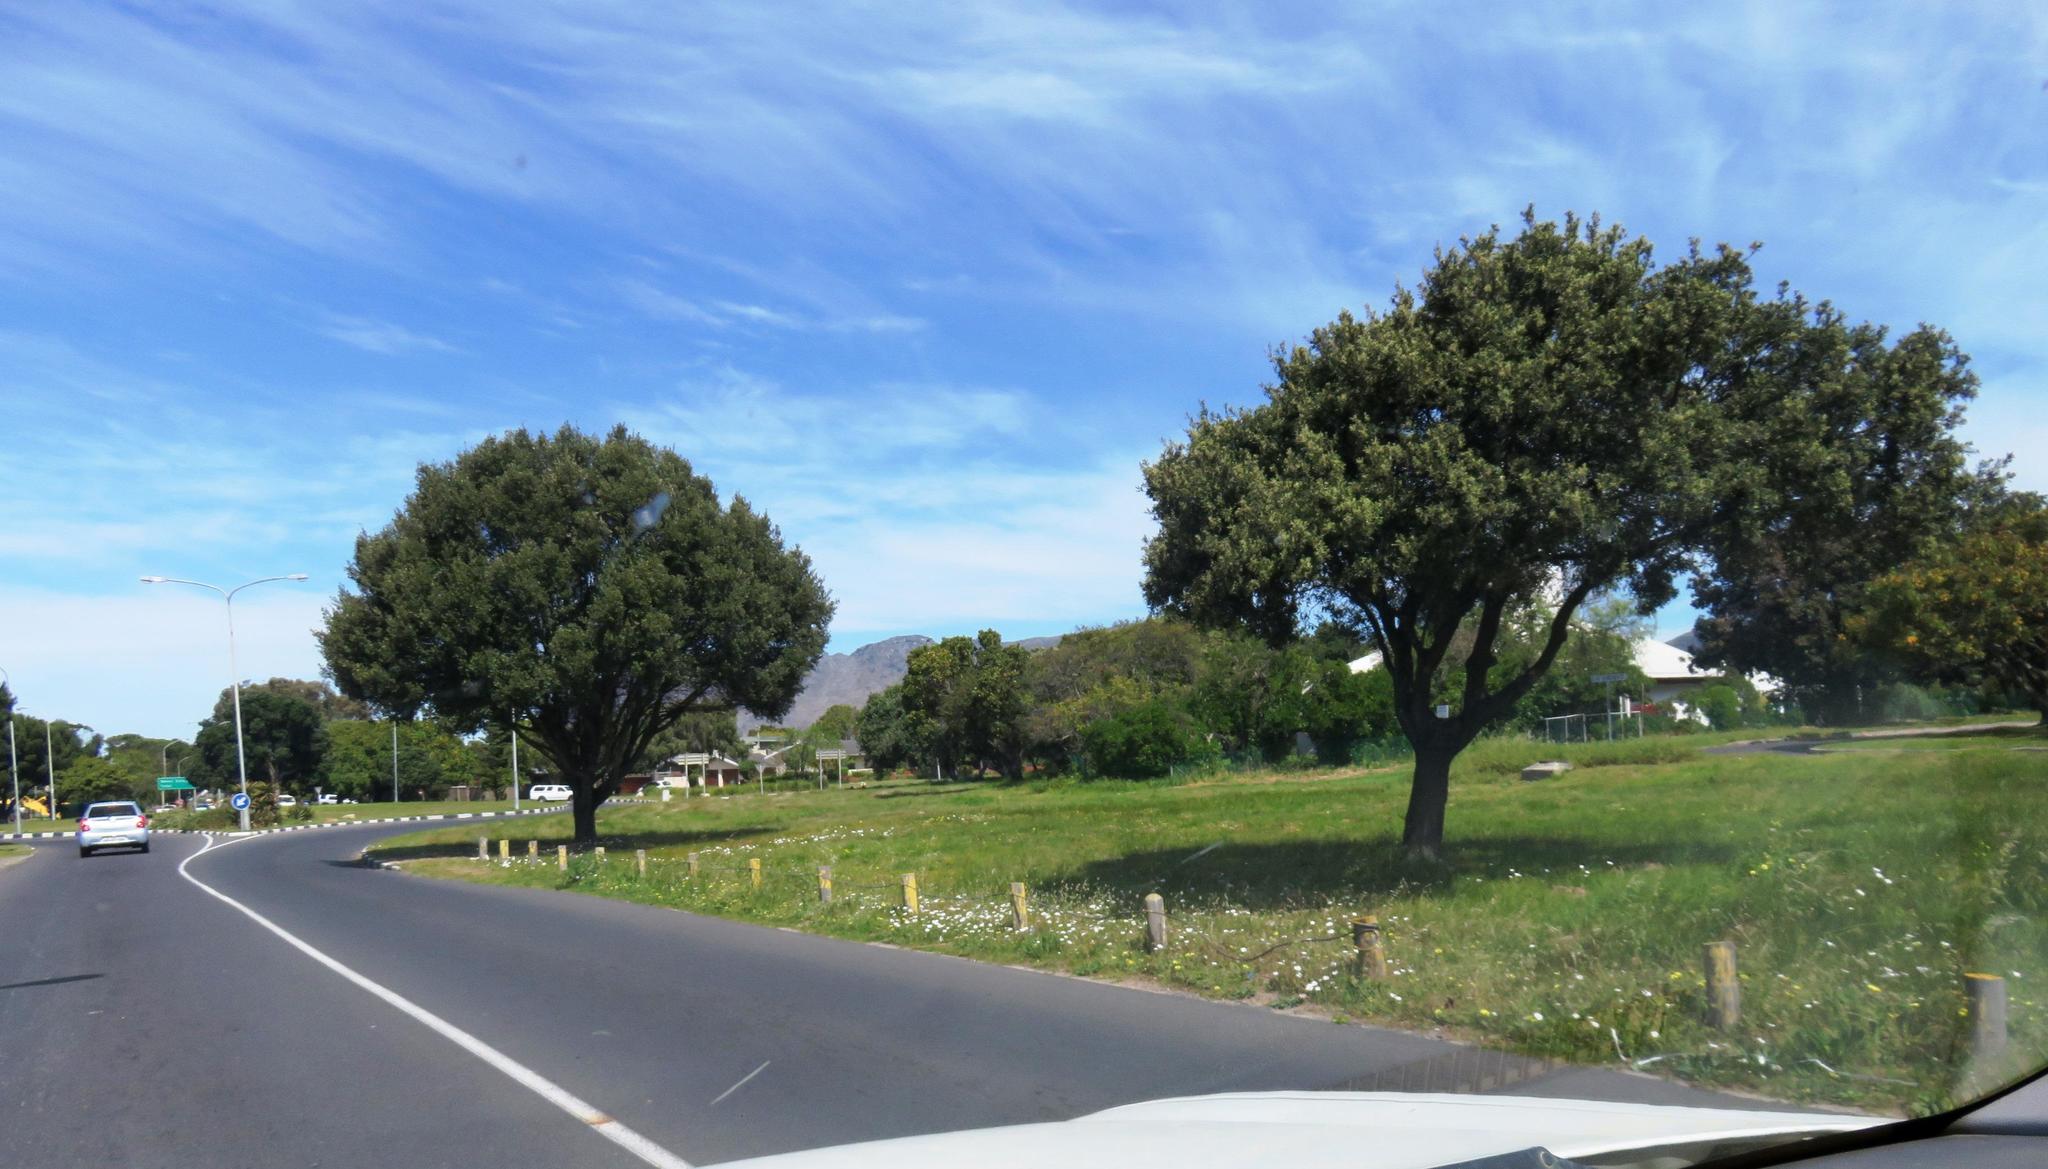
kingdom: Plantae
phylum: Tracheophyta
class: Magnoliopsida
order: Asterales
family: Asteraceae
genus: Dimorphotheca
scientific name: Dimorphotheca pluvialis
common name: Weather prophet
